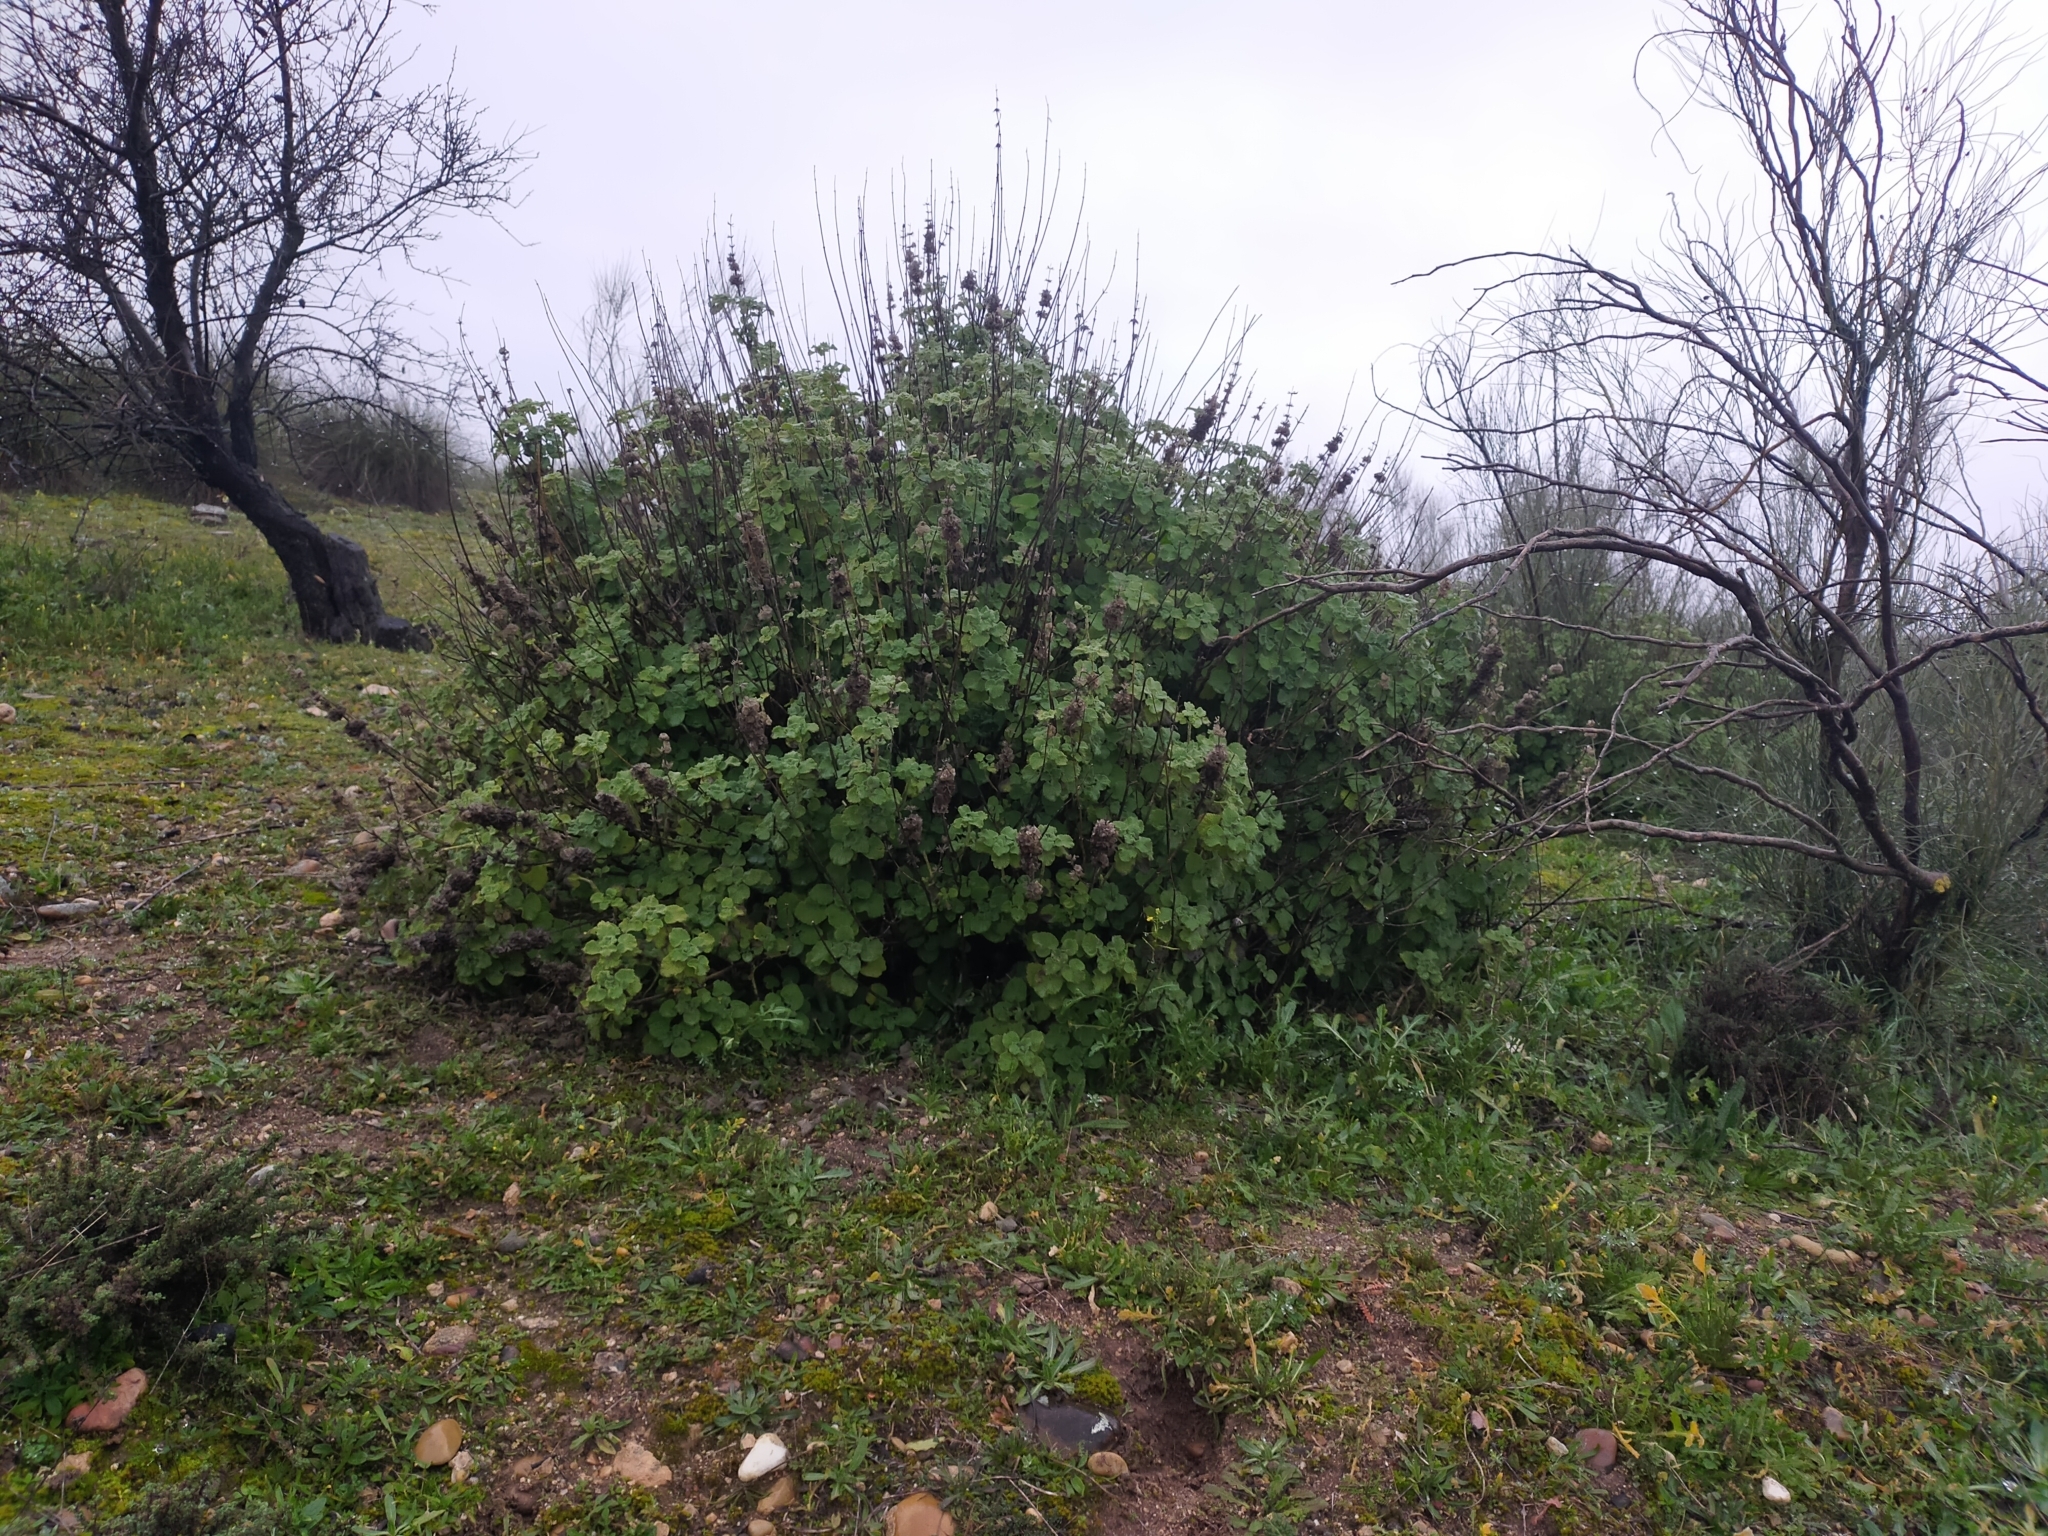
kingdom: Plantae
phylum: Tracheophyta
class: Magnoliopsida
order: Lamiales
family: Lamiaceae
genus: Pseudodictamnus
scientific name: Pseudodictamnus hirsutus
